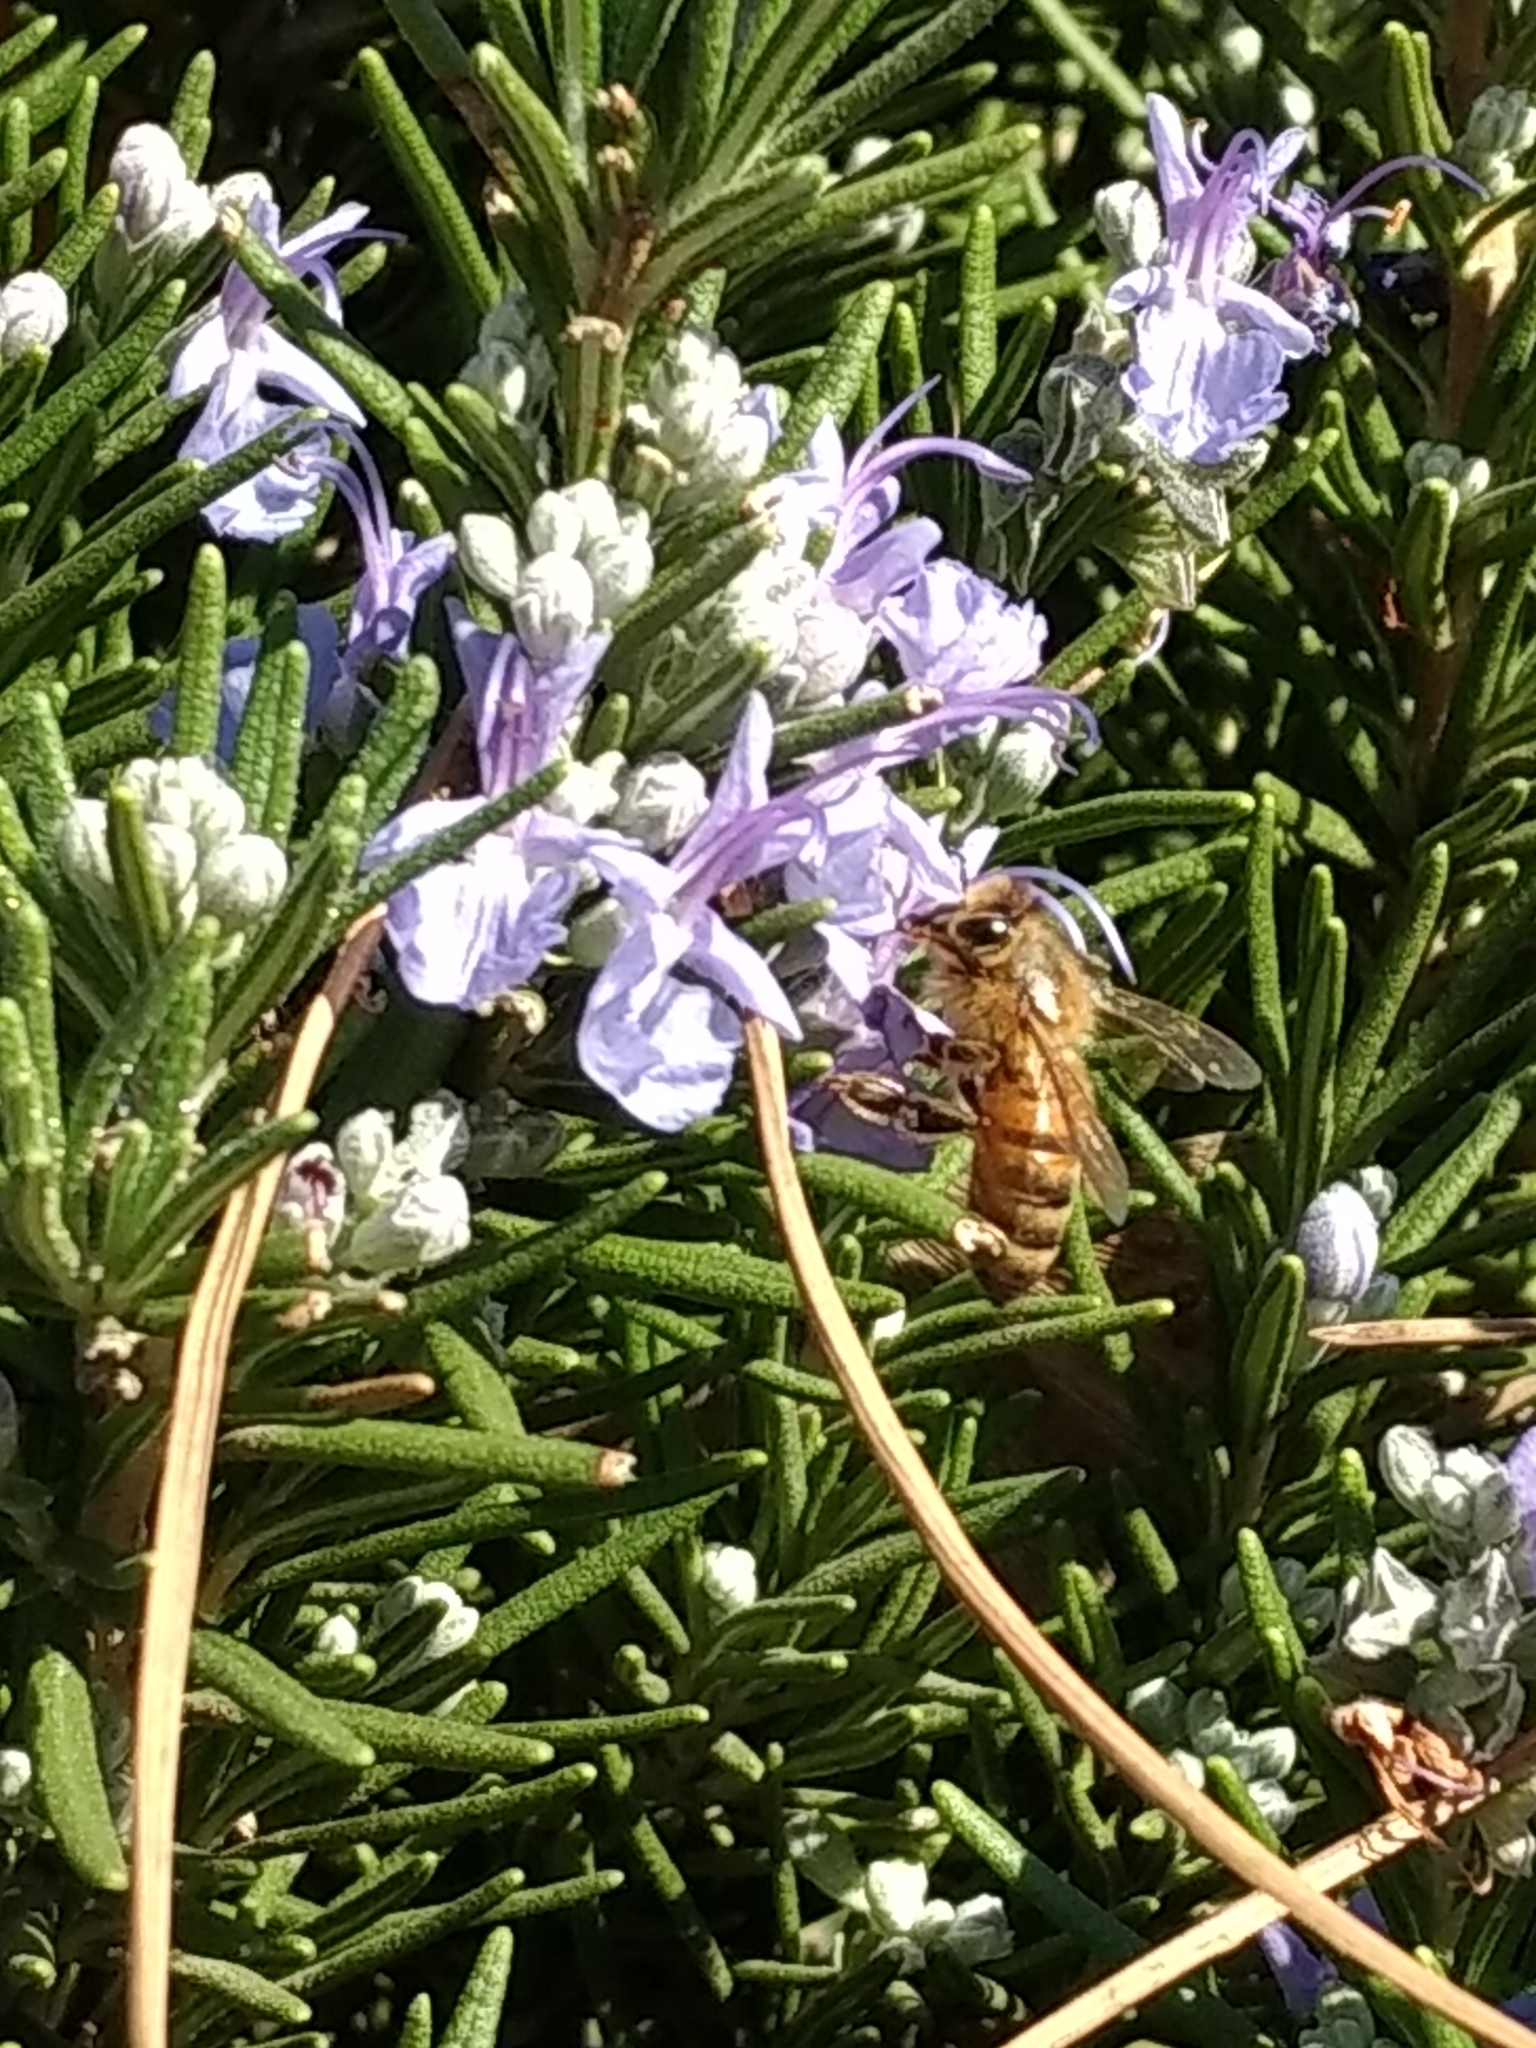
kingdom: Animalia
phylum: Arthropoda
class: Insecta
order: Hymenoptera
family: Apidae
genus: Apis
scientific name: Apis mellifera
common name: Honey bee
